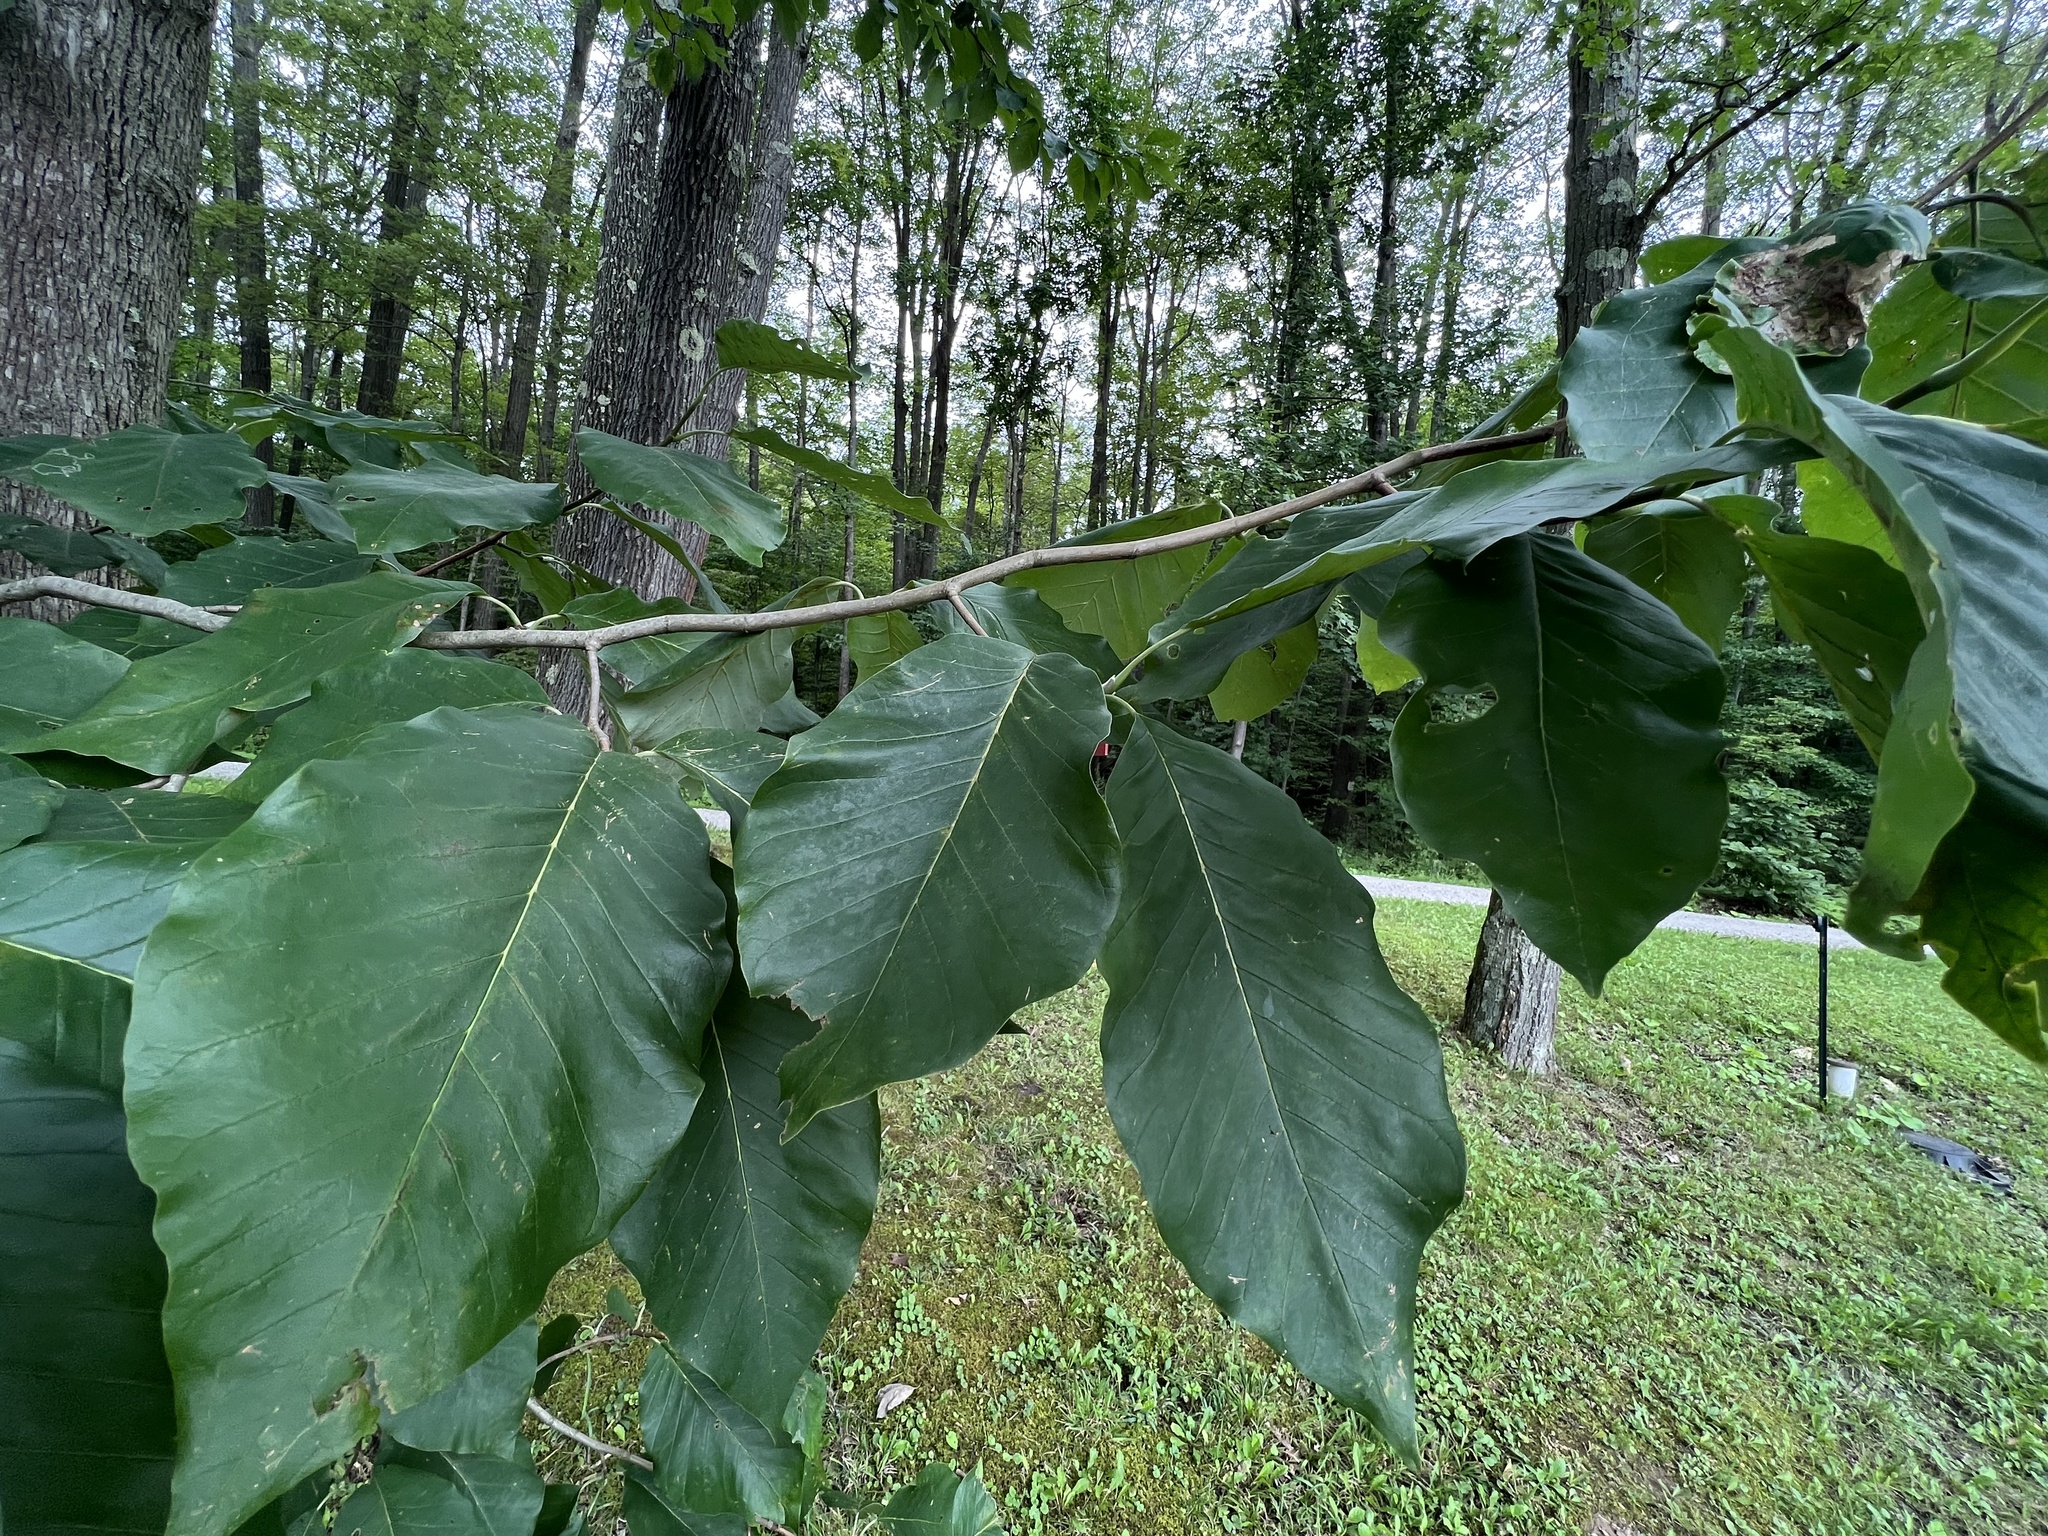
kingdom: Animalia
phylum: Arthropoda
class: Insecta
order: Lepidoptera
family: Gracillariidae
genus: Phyllocnistis
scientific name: Phyllocnistis liriodendronella
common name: Tulip tree leaf miner
